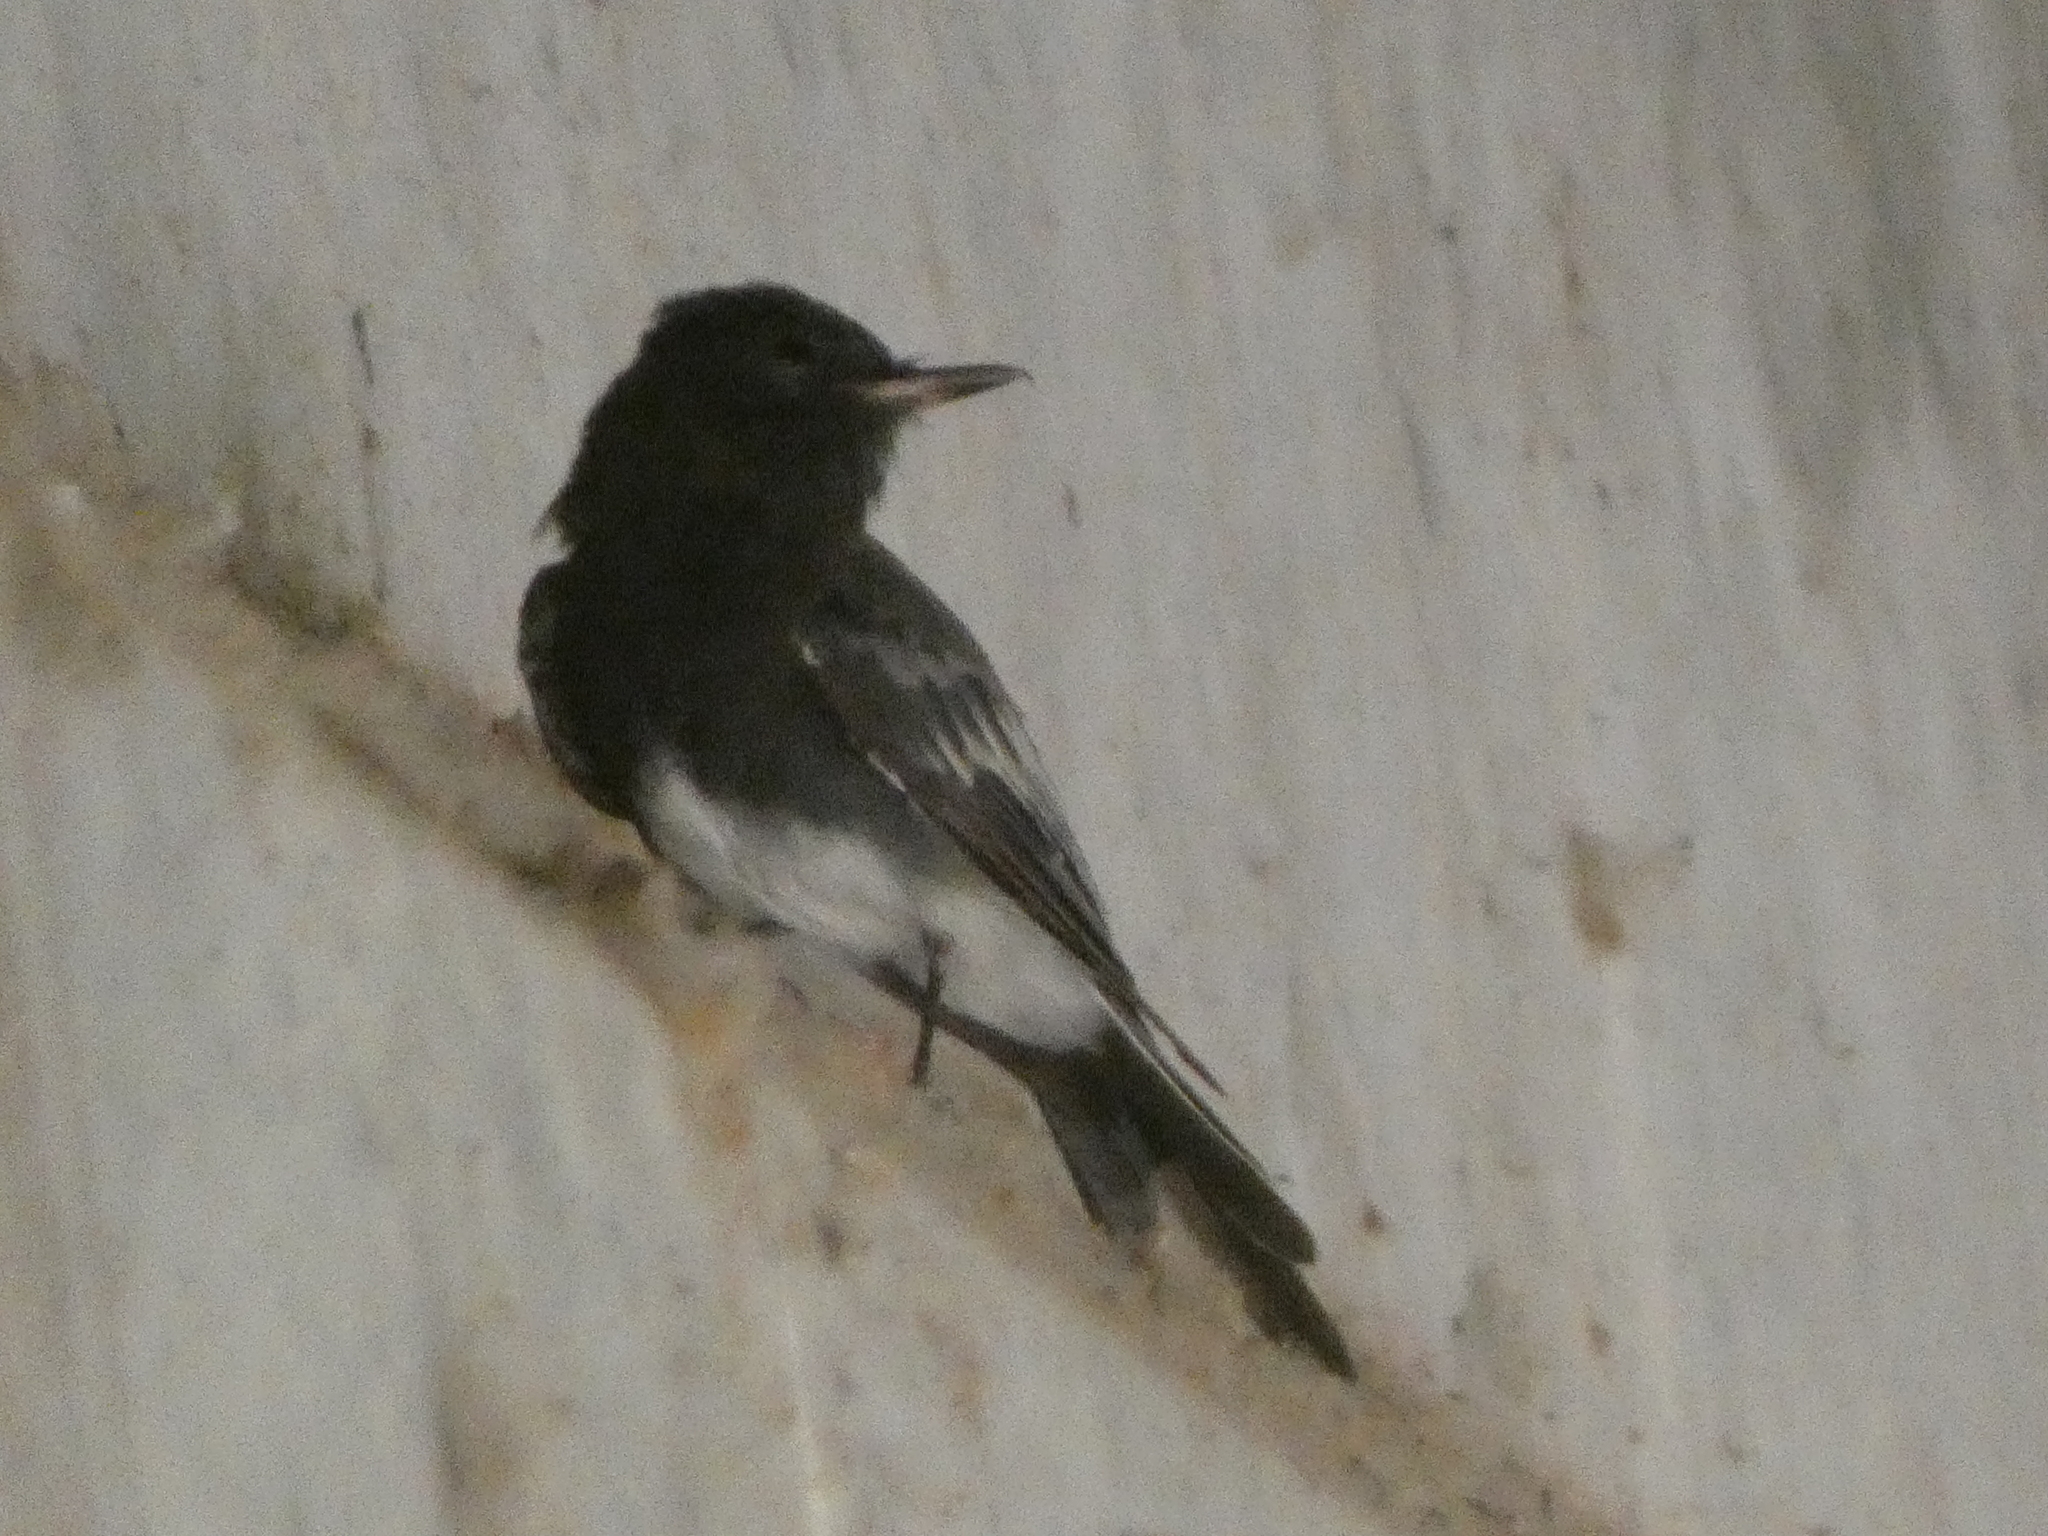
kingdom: Animalia
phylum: Chordata
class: Aves
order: Passeriformes
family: Tyrannidae
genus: Sayornis
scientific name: Sayornis nigricans
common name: Black phoebe
